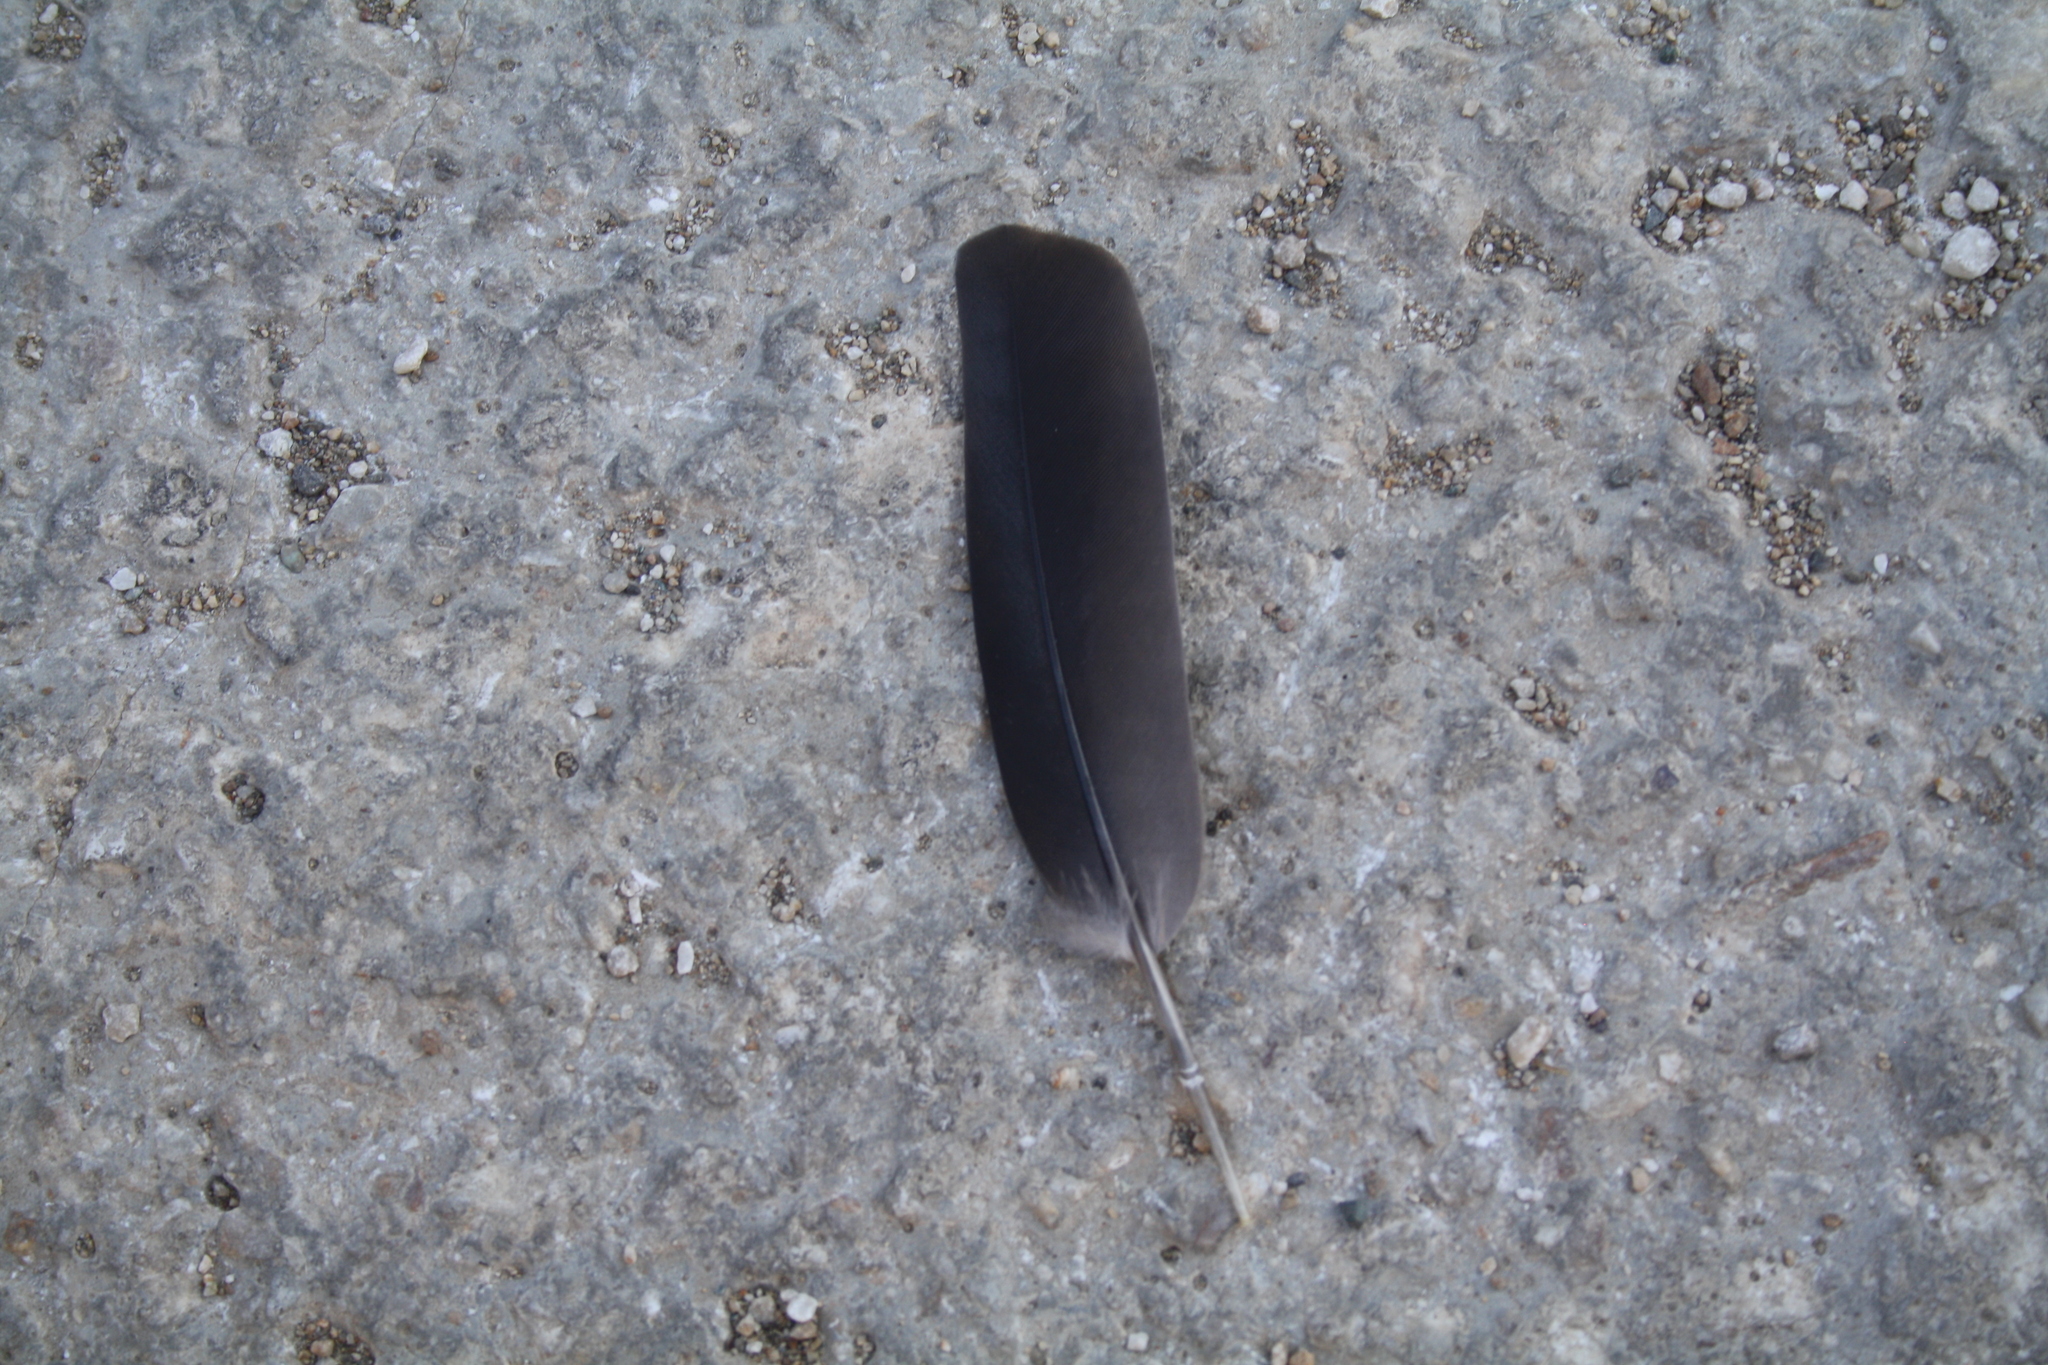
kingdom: Animalia
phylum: Chordata
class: Aves
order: Columbiformes
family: Columbidae
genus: Columba
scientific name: Columba livia
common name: Rock pigeon
